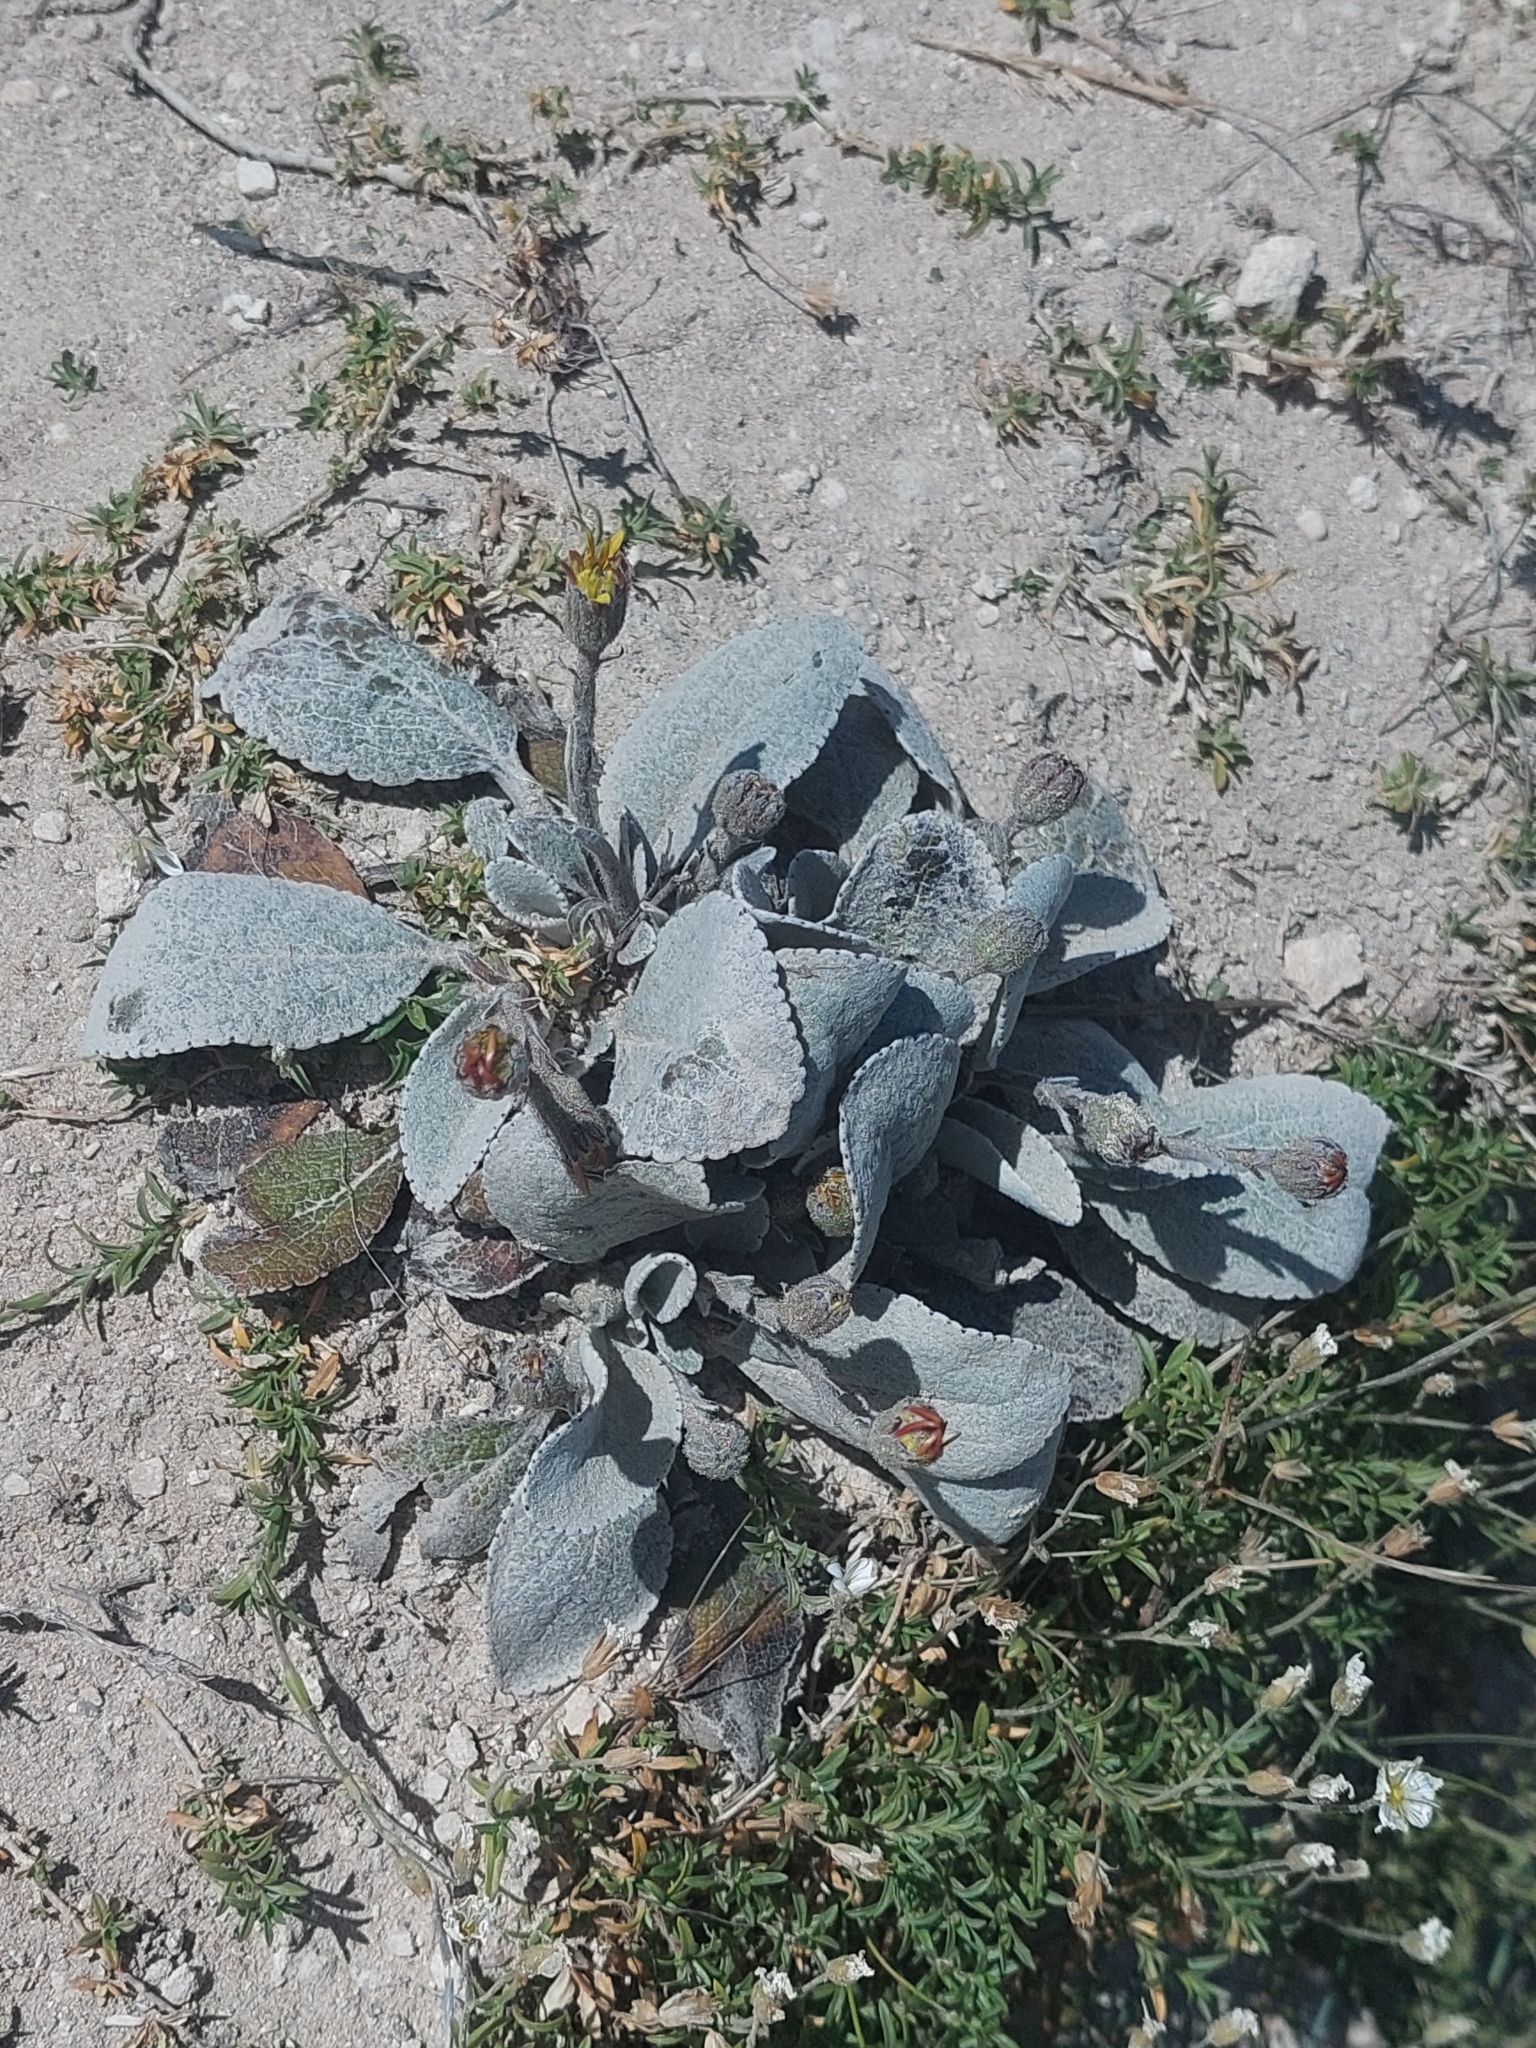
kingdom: Plantae
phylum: Tracheophyta
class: Magnoliopsida
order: Asterales
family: Asteraceae
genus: Brachyglottis
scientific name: Brachyglottis haastii
